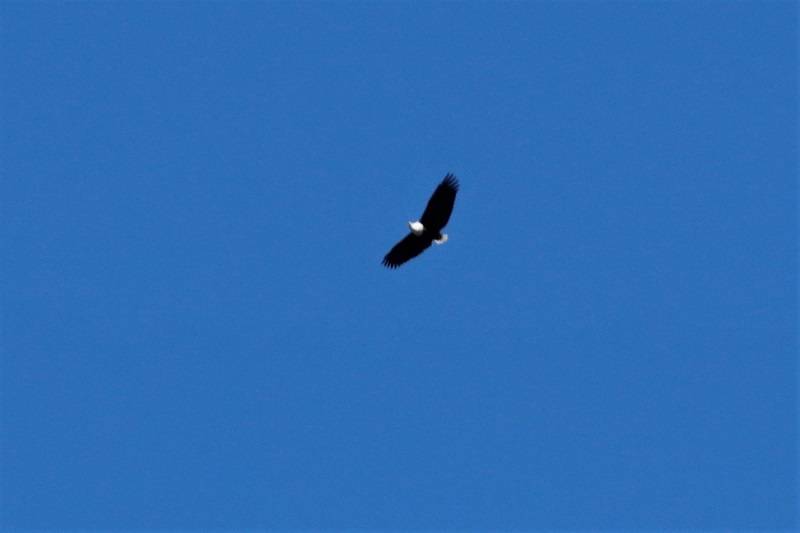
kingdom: Animalia
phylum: Chordata
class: Aves
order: Accipitriformes
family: Accipitridae
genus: Haliaeetus
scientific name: Haliaeetus vocifer
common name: African fish eagle
